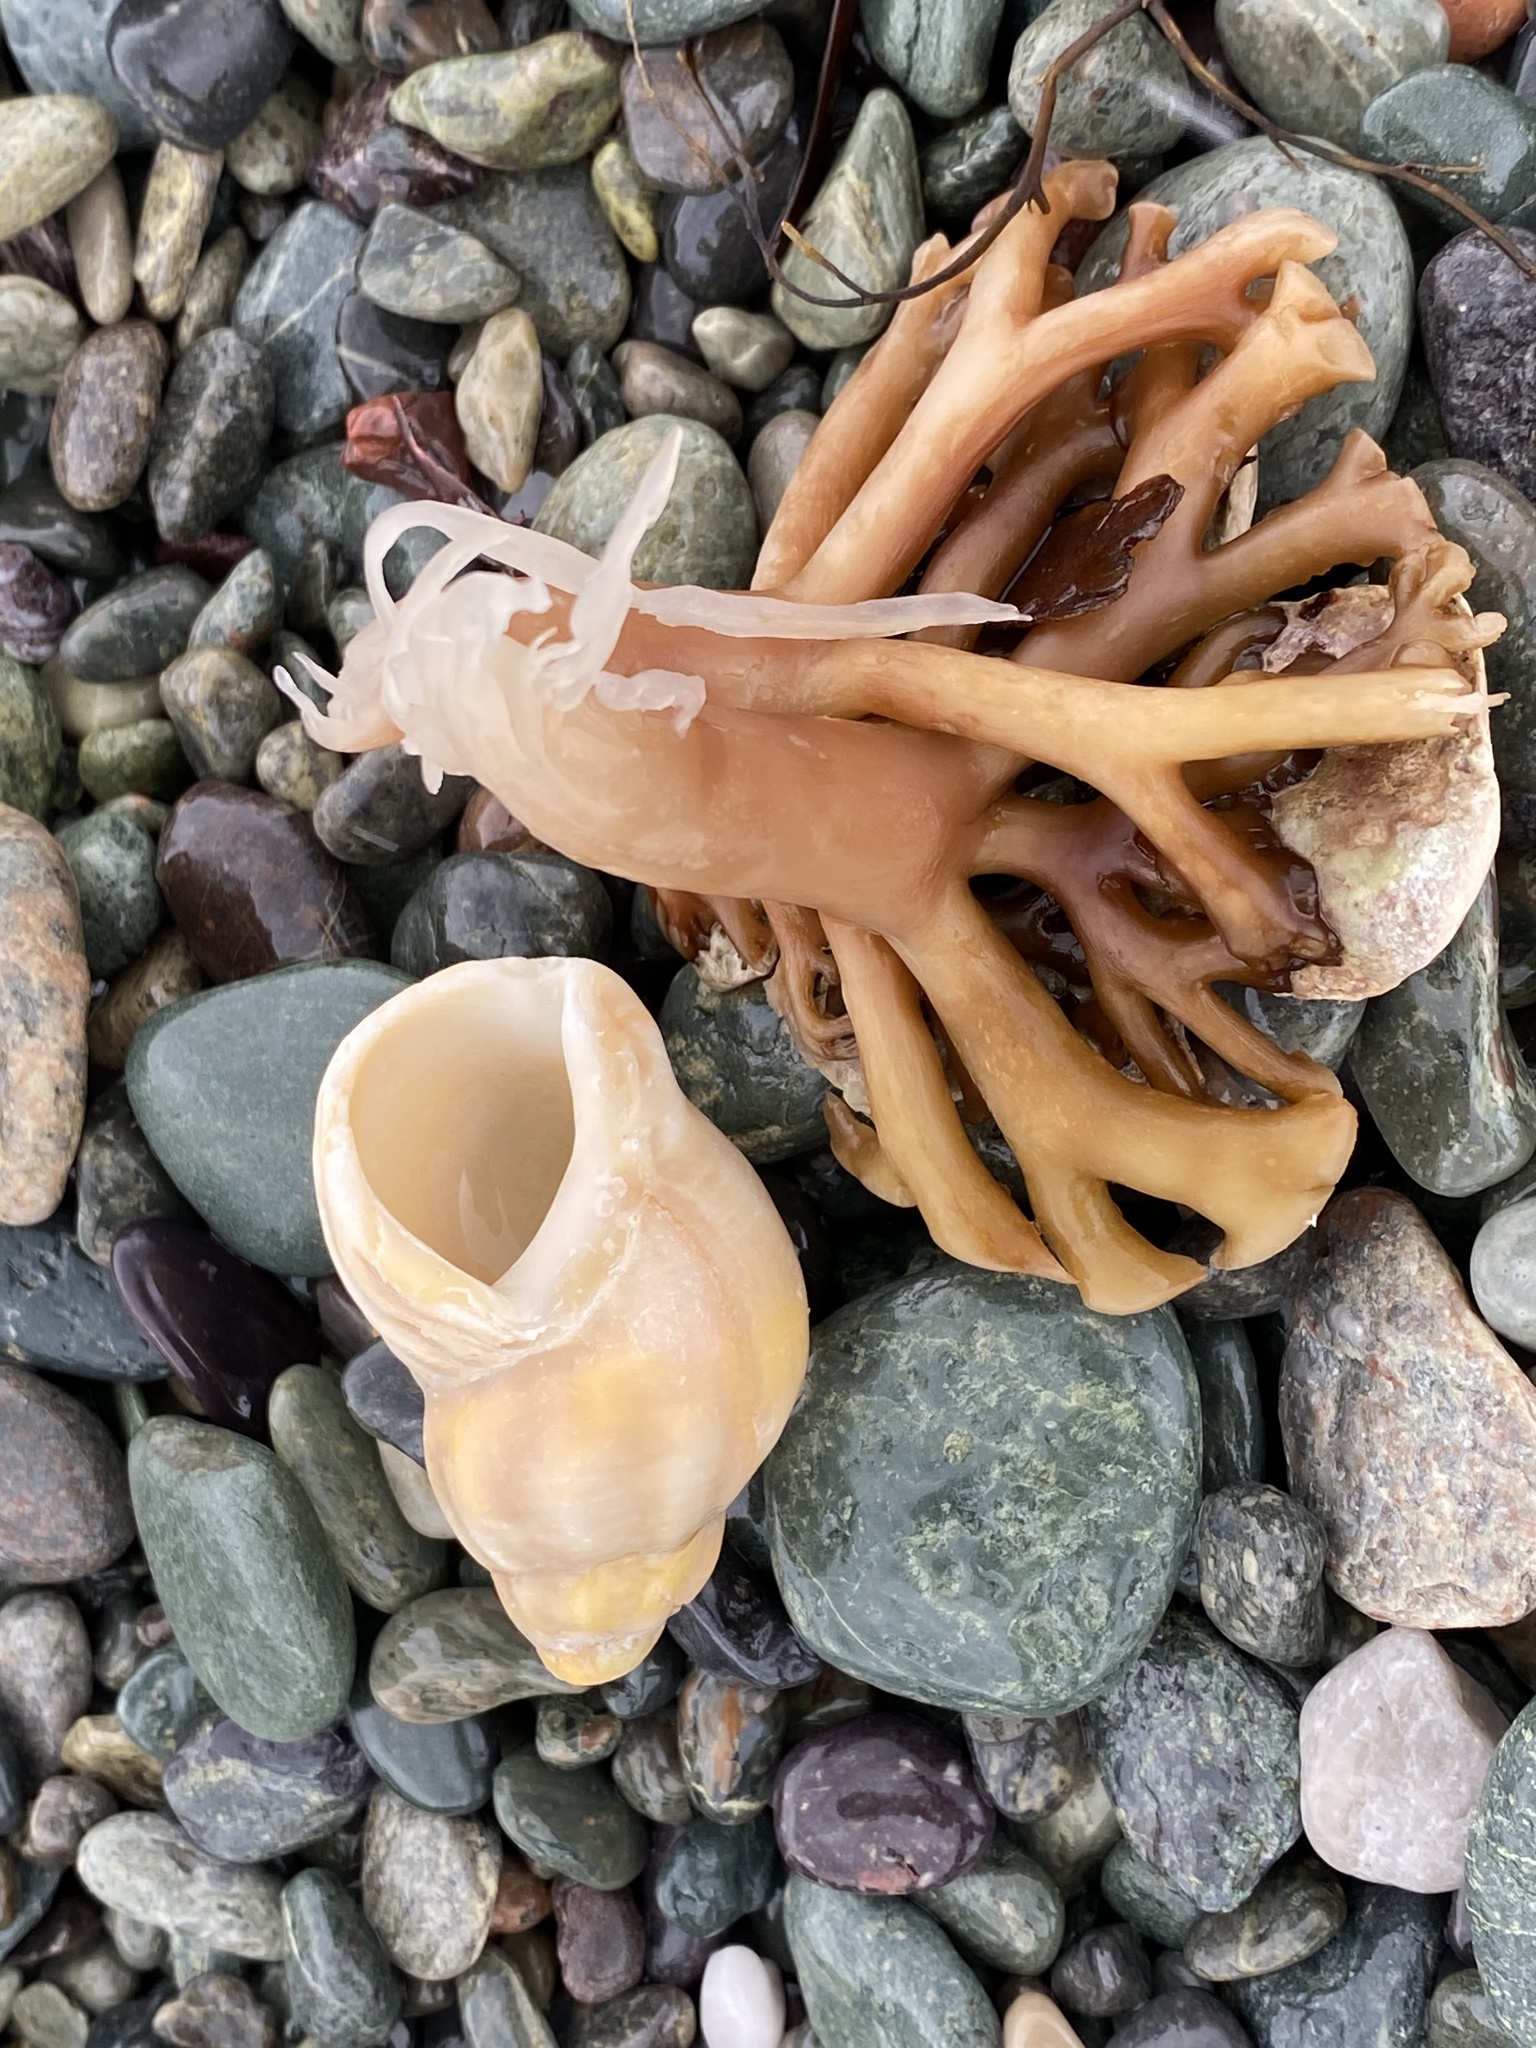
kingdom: Animalia
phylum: Mollusca
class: Gastropoda
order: Neogastropoda
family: Buccinidae
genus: Buccinum
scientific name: Buccinum undatum
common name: Common whelk
